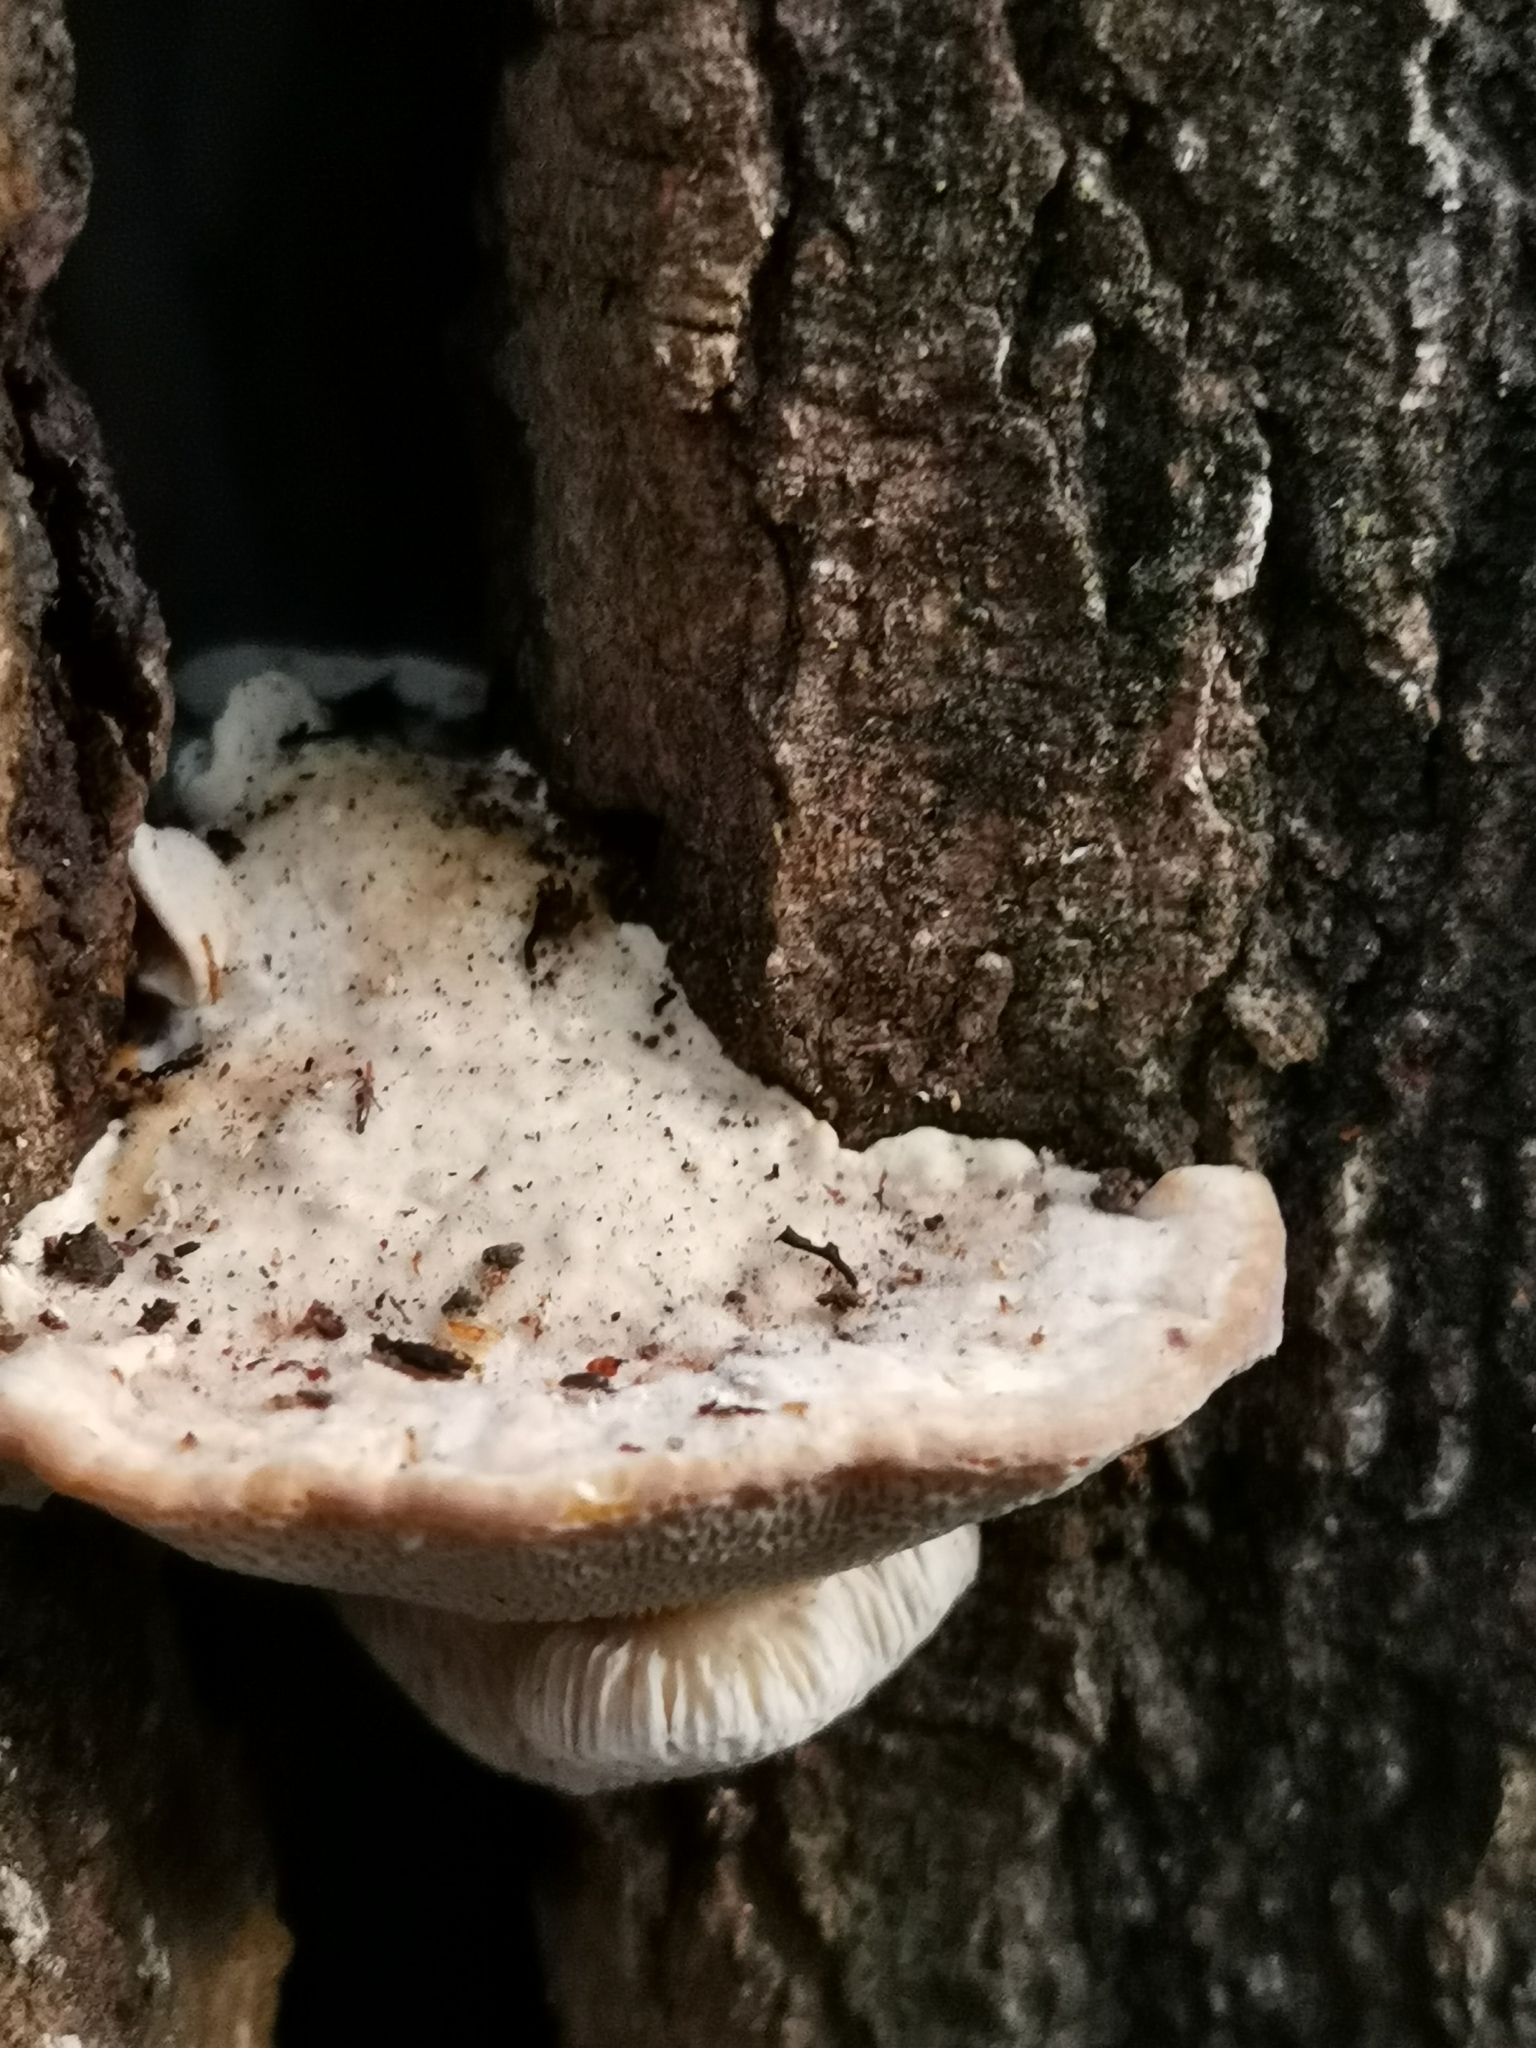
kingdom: Fungi
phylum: Basidiomycota
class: Agaricomycetes
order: Polyporales
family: Polyporaceae
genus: Trametes
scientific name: Trametes gibbosa
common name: Lumpy bracket
